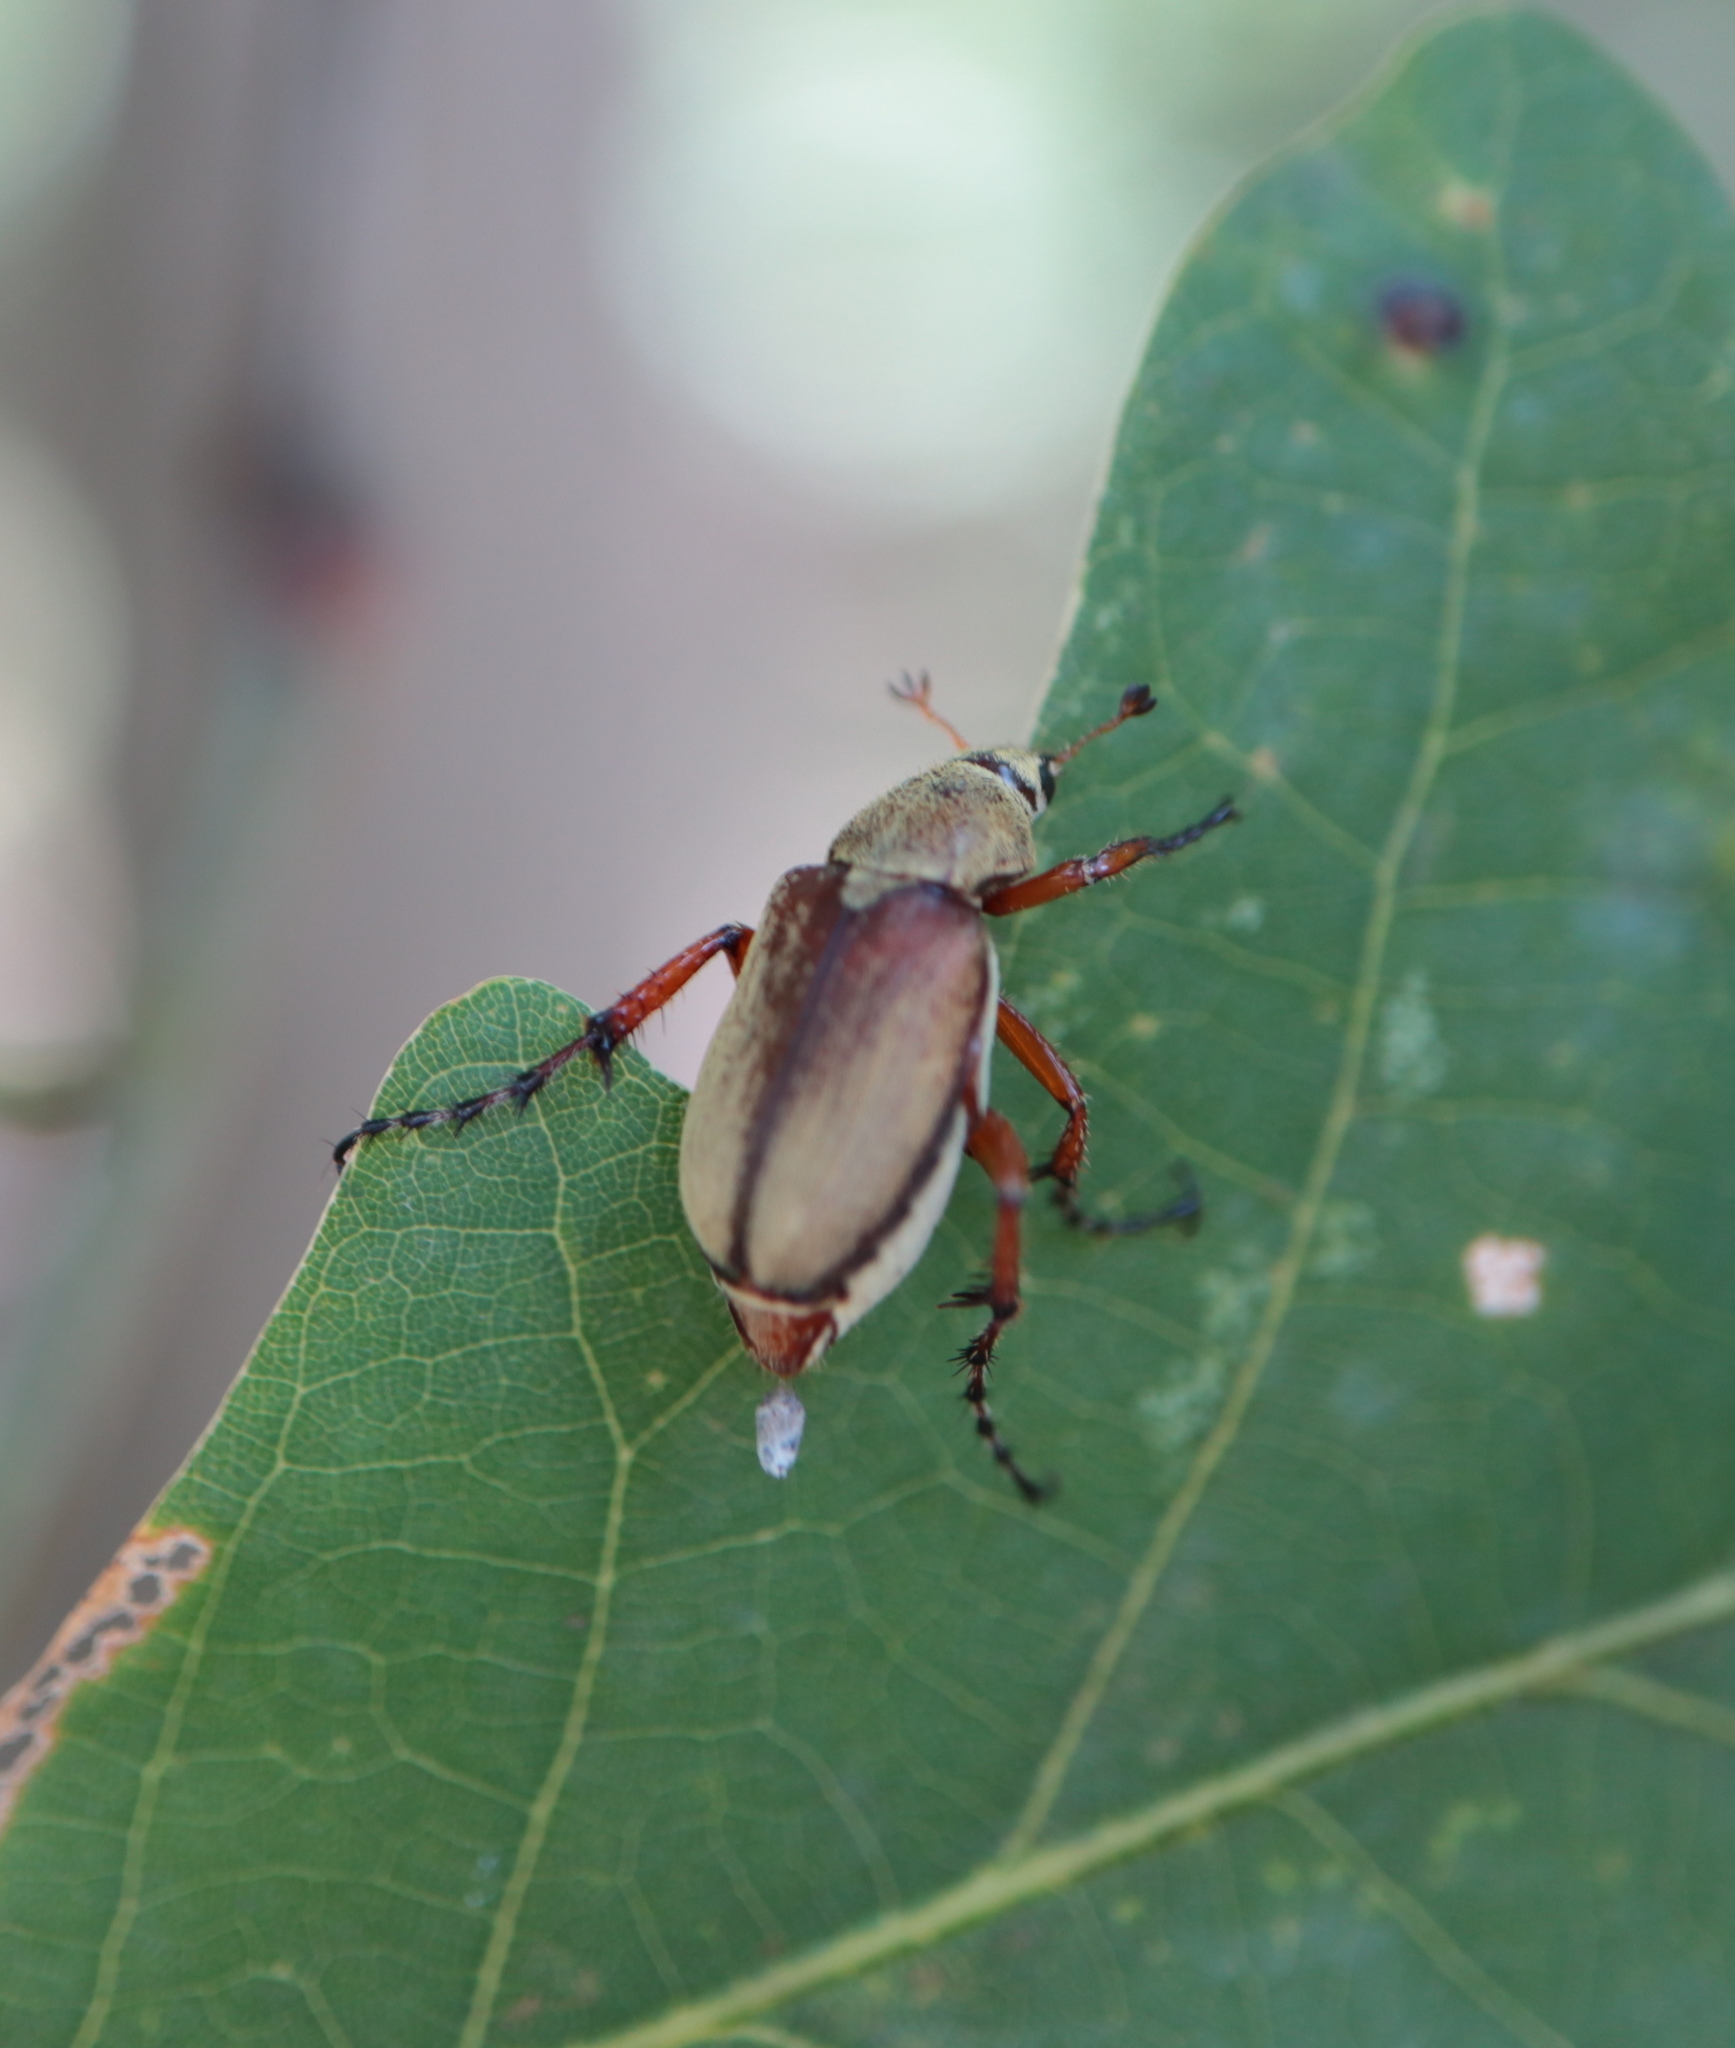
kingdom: Animalia
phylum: Arthropoda
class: Insecta
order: Coleoptera
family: Scarabaeidae
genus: Macrodactylus
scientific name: Macrodactylus subspinosus
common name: American rose chafer
